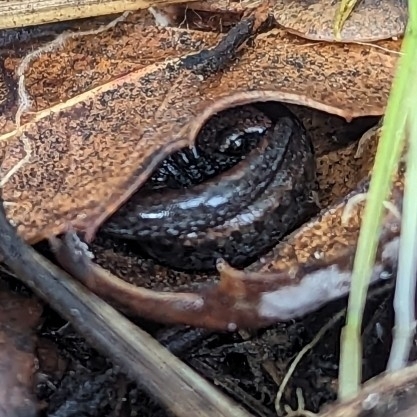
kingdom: Animalia
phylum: Chordata
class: Amphibia
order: Caudata
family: Plethodontidae
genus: Batrachoseps
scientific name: Batrachoseps attenuatus
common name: California slender salamander
